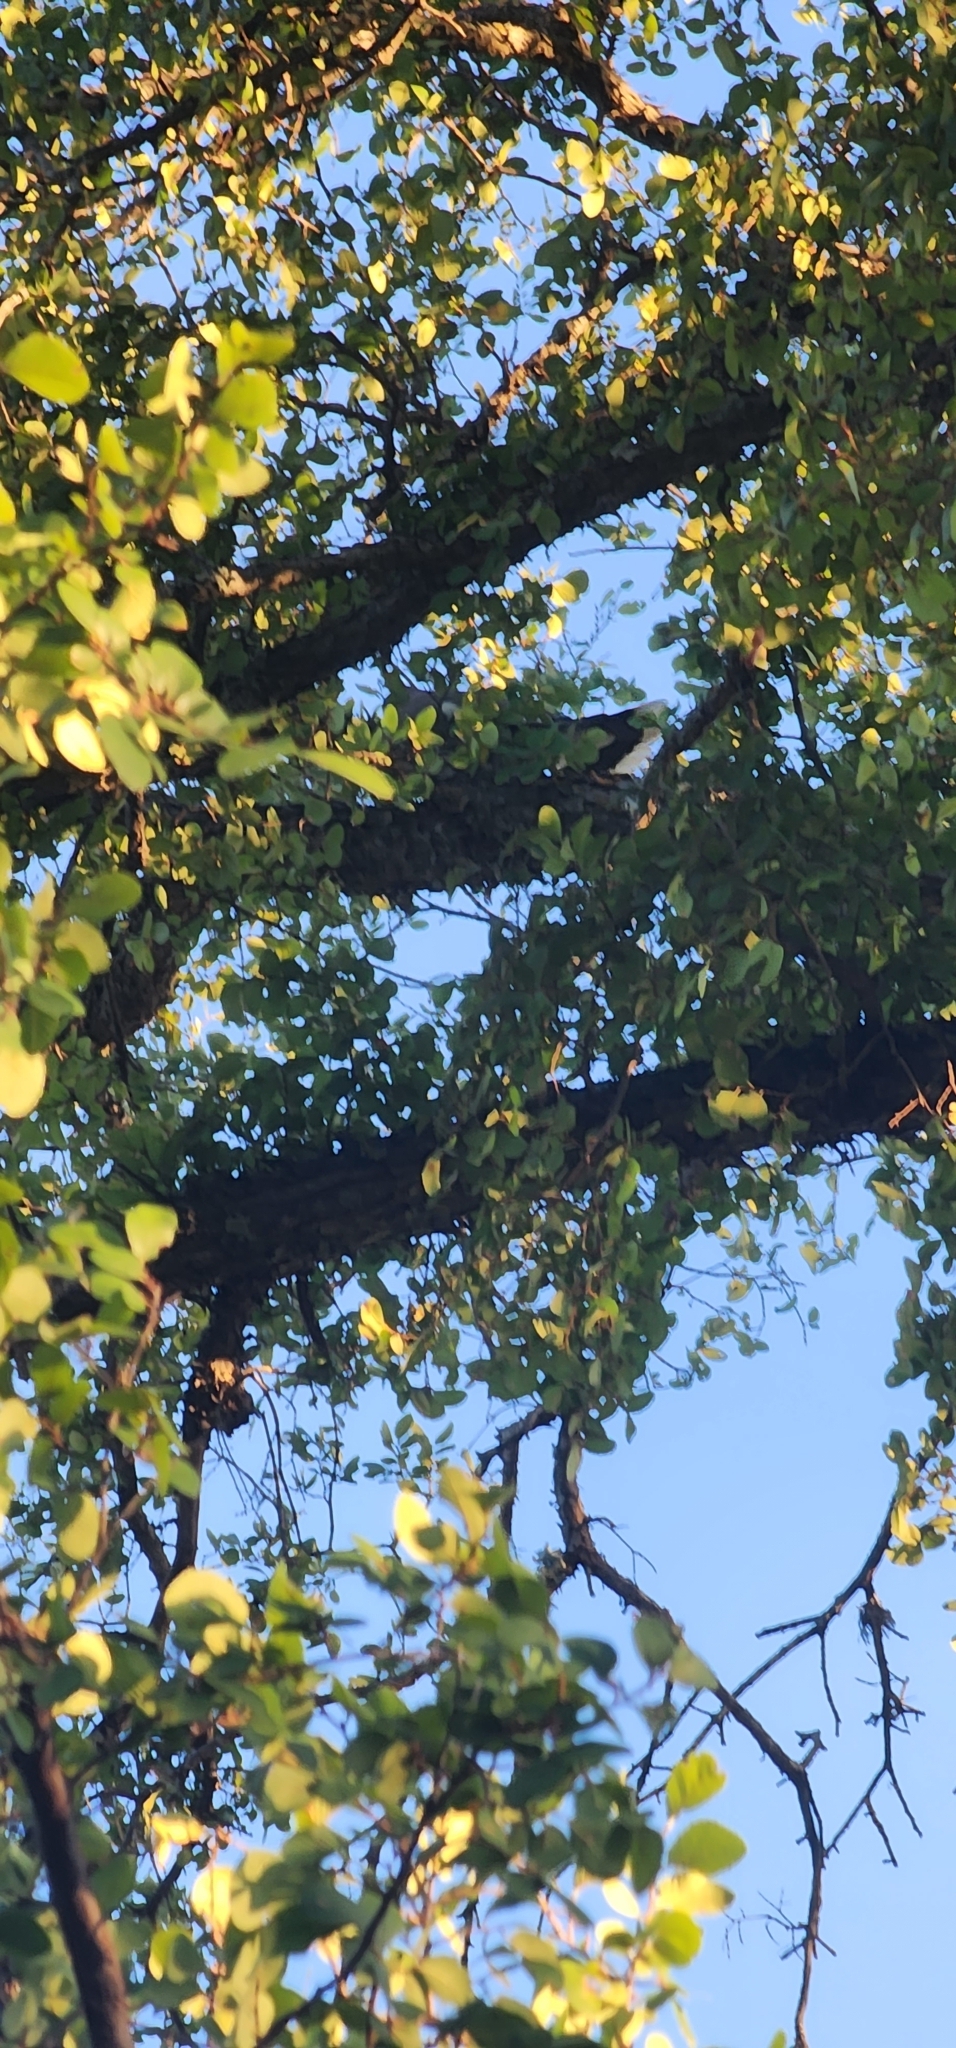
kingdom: Animalia
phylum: Chordata
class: Aves
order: Columbiformes
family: Columbidae
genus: Zenaida
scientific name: Zenaida asiatica
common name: White-winged dove
